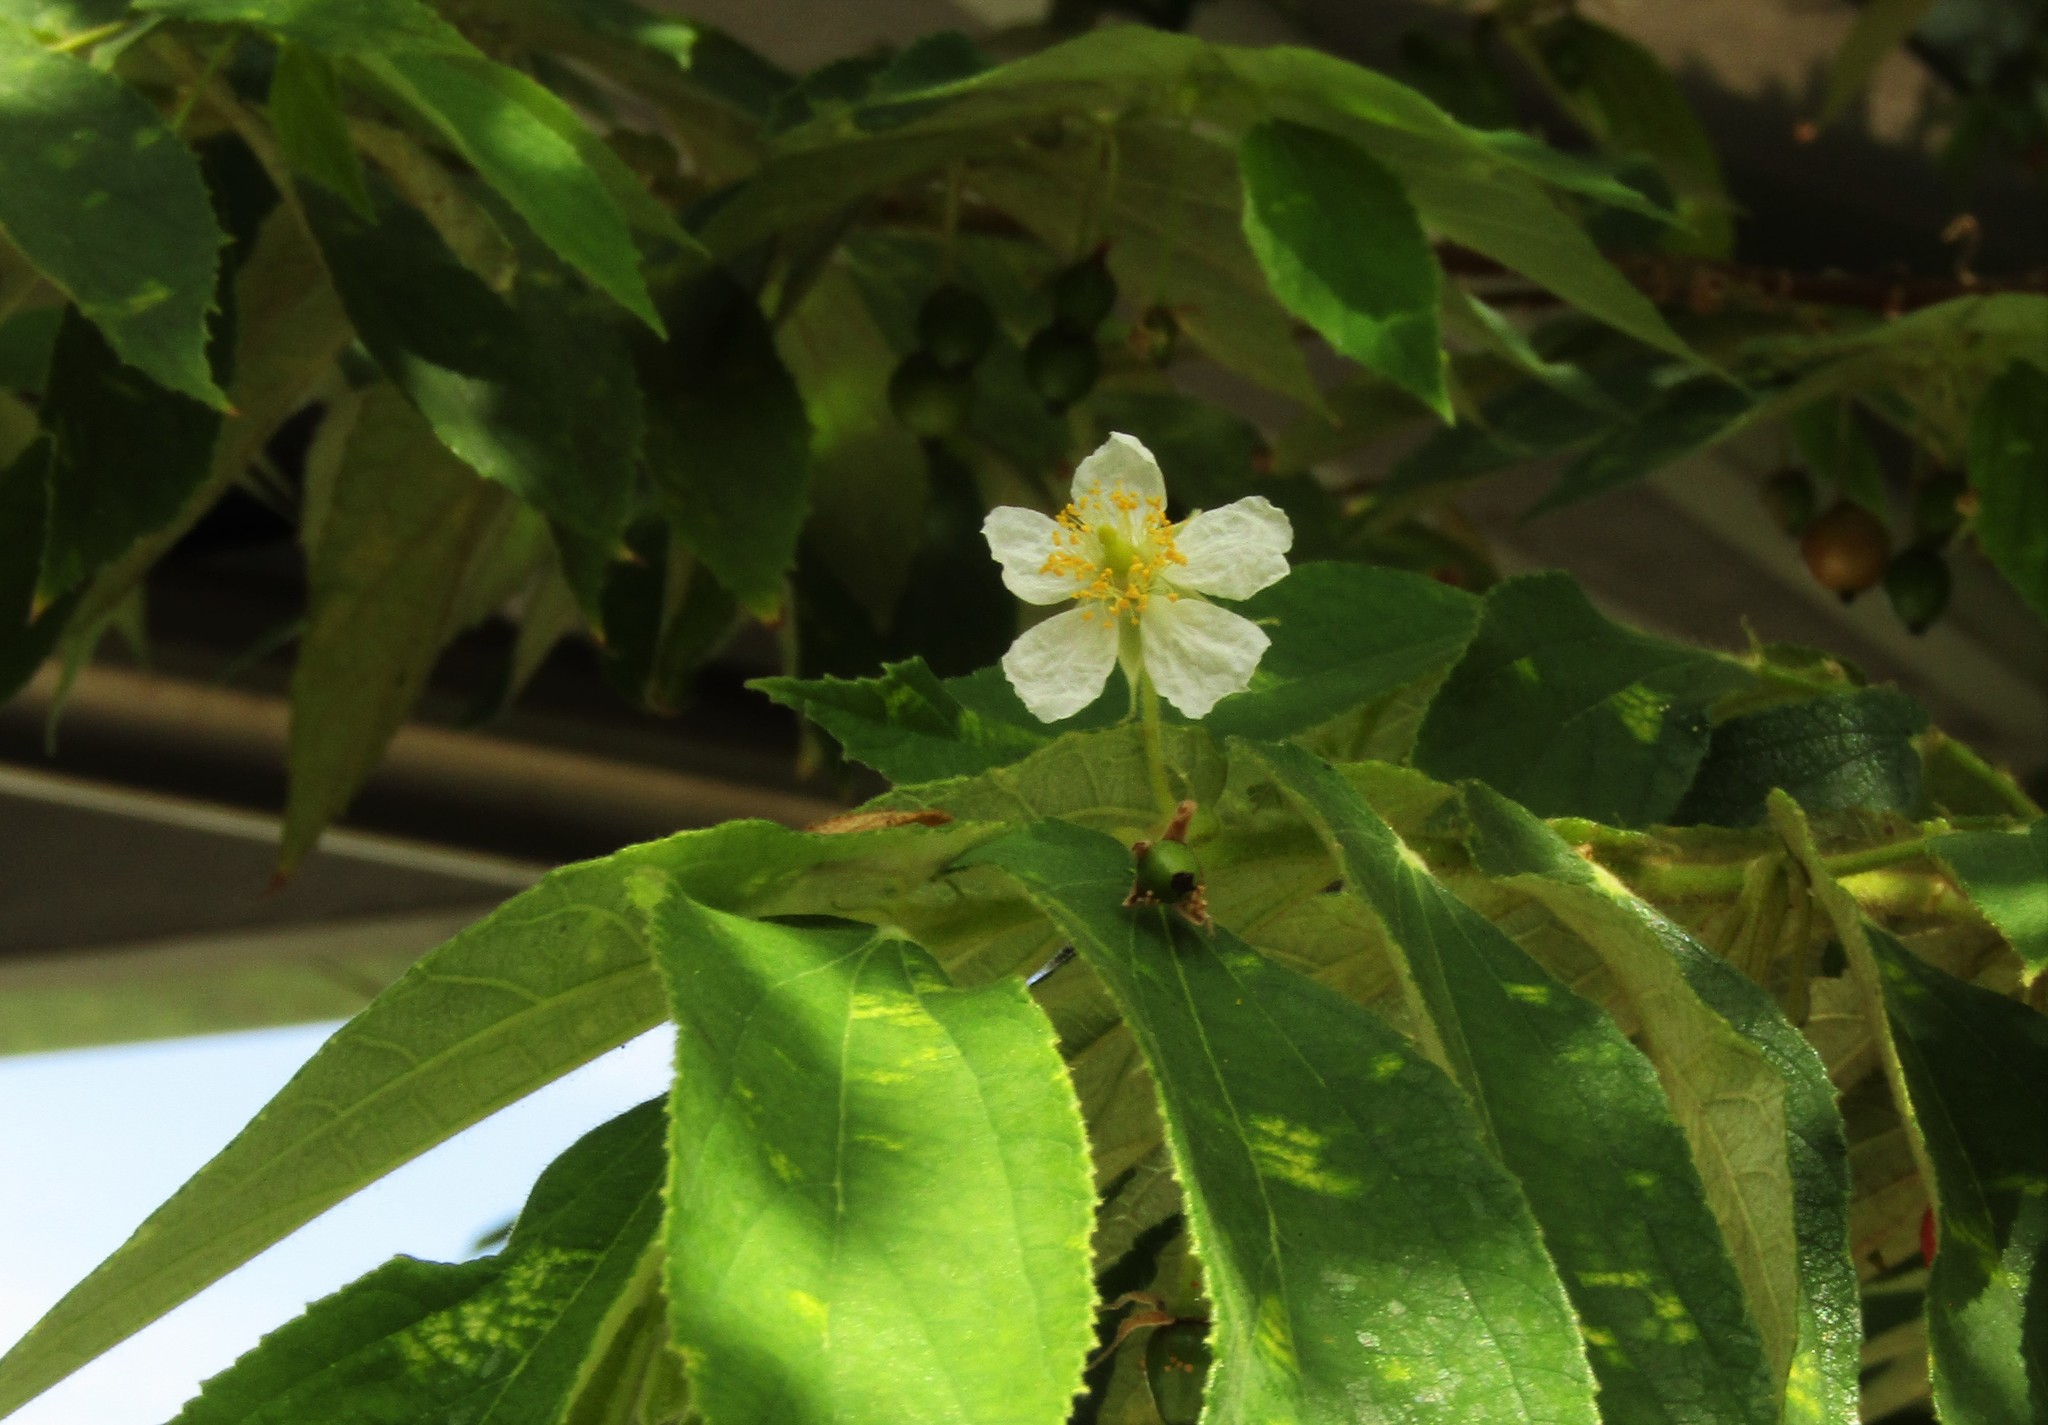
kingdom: Plantae
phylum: Tracheophyta
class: Magnoliopsida
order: Malvales
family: Muntingiaceae
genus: Muntingia
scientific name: Muntingia calabura
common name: Strawberrytree
